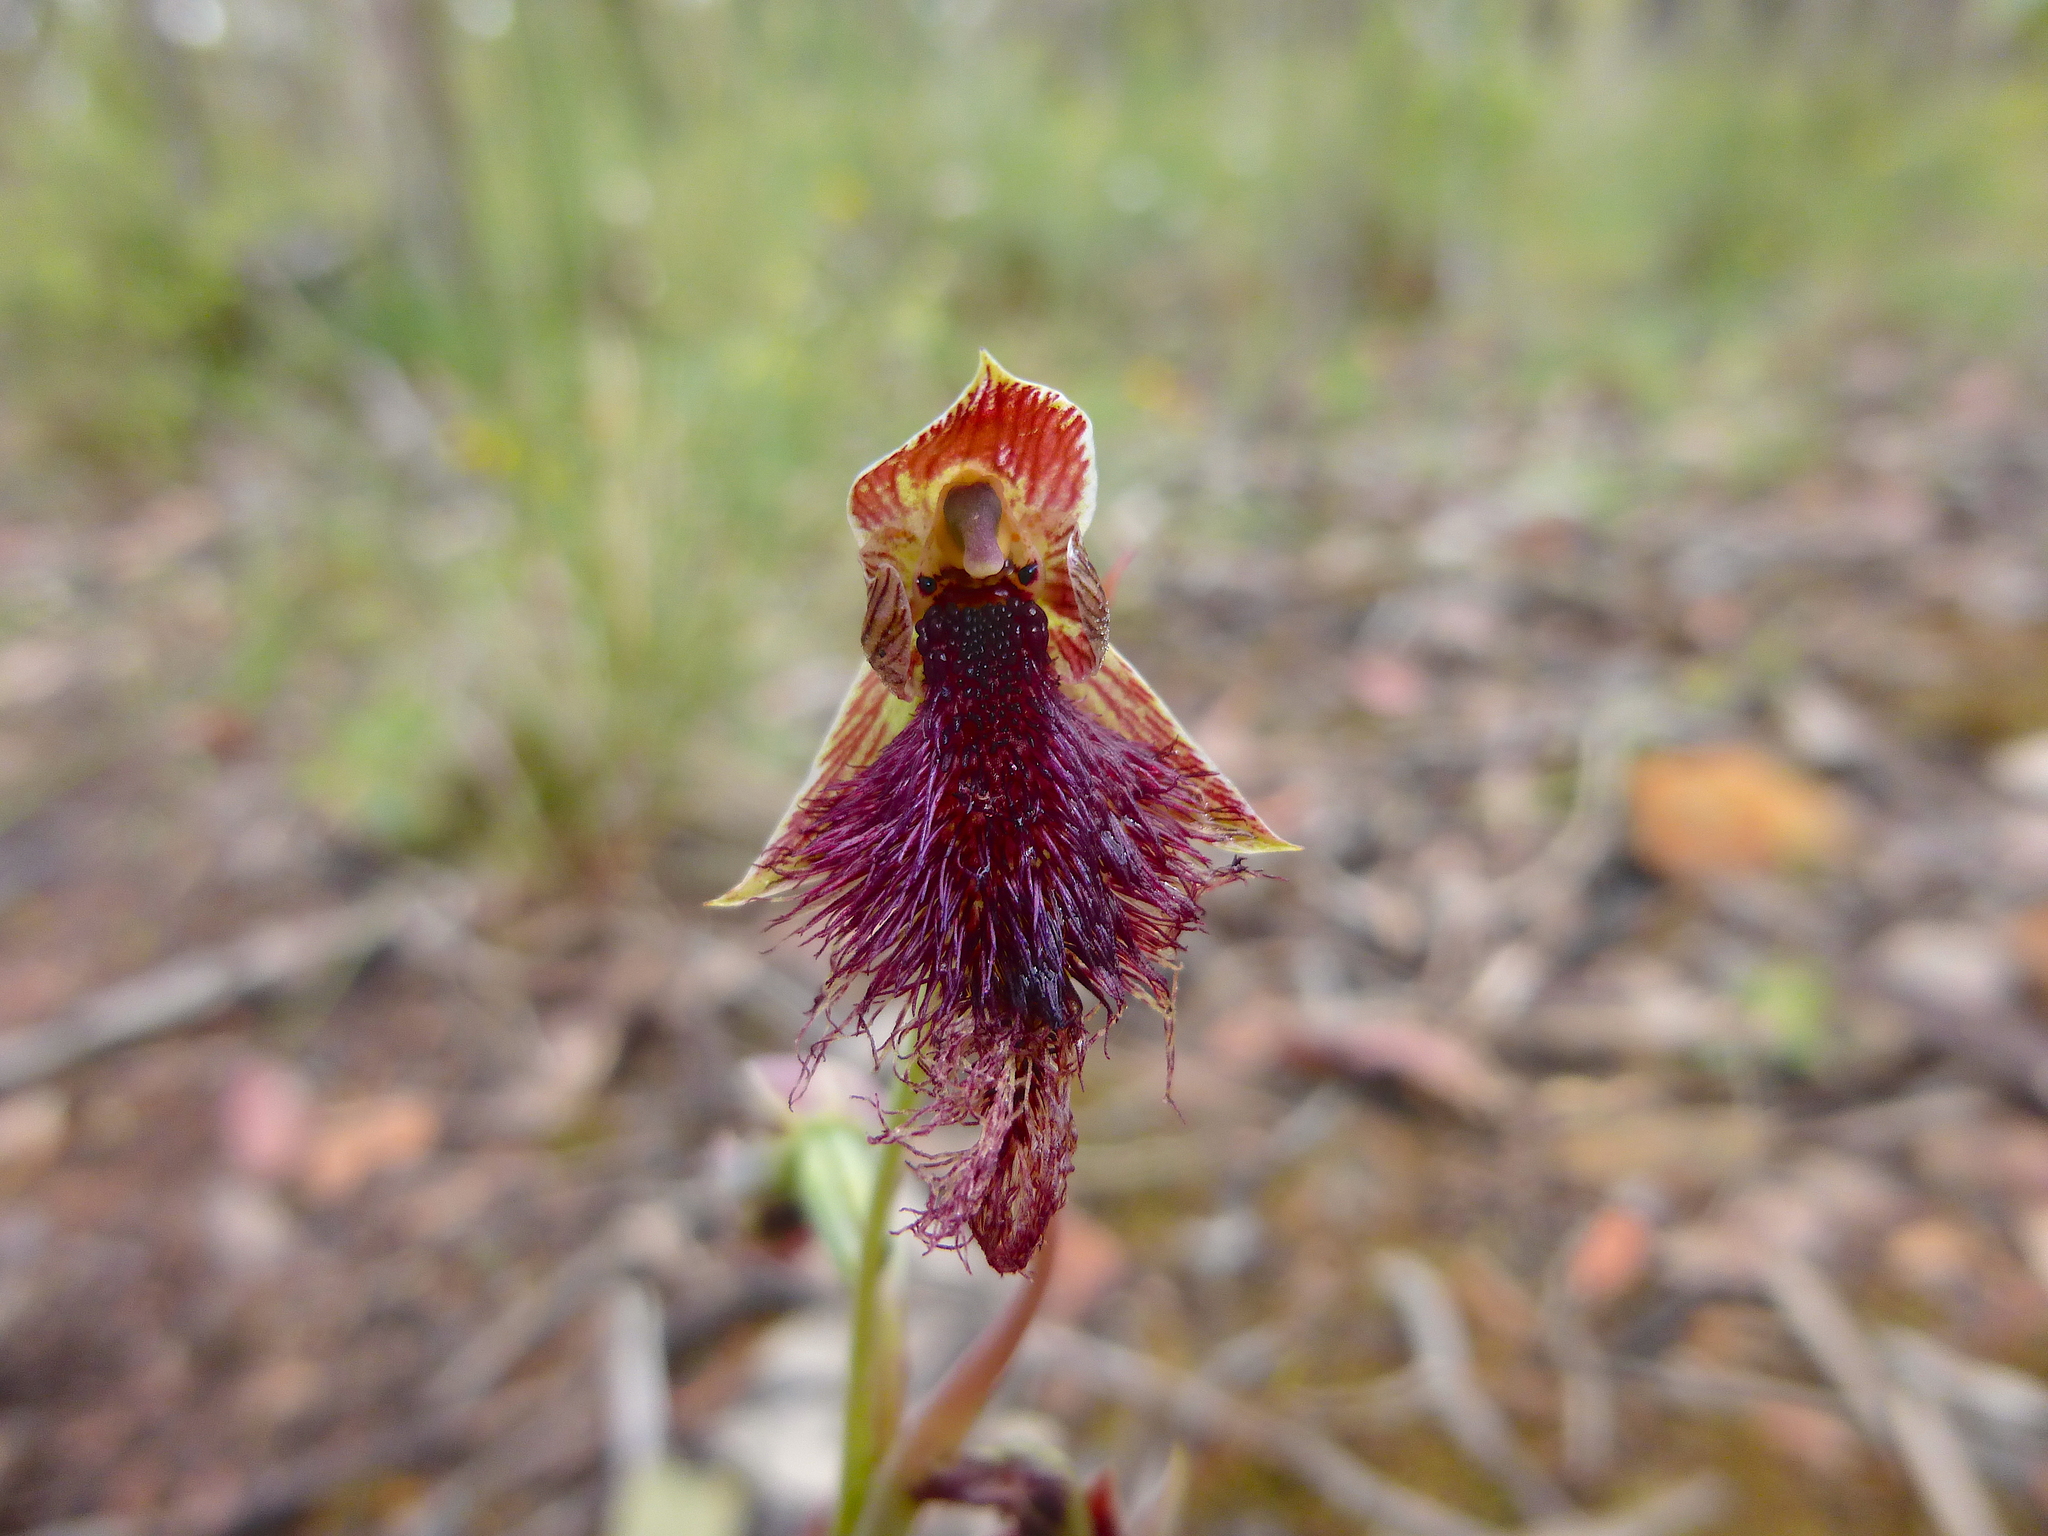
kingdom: Plantae
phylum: Tracheophyta
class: Liliopsida
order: Asparagales
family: Orchidaceae
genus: Calochilus
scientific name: Calochilus robertsonii
